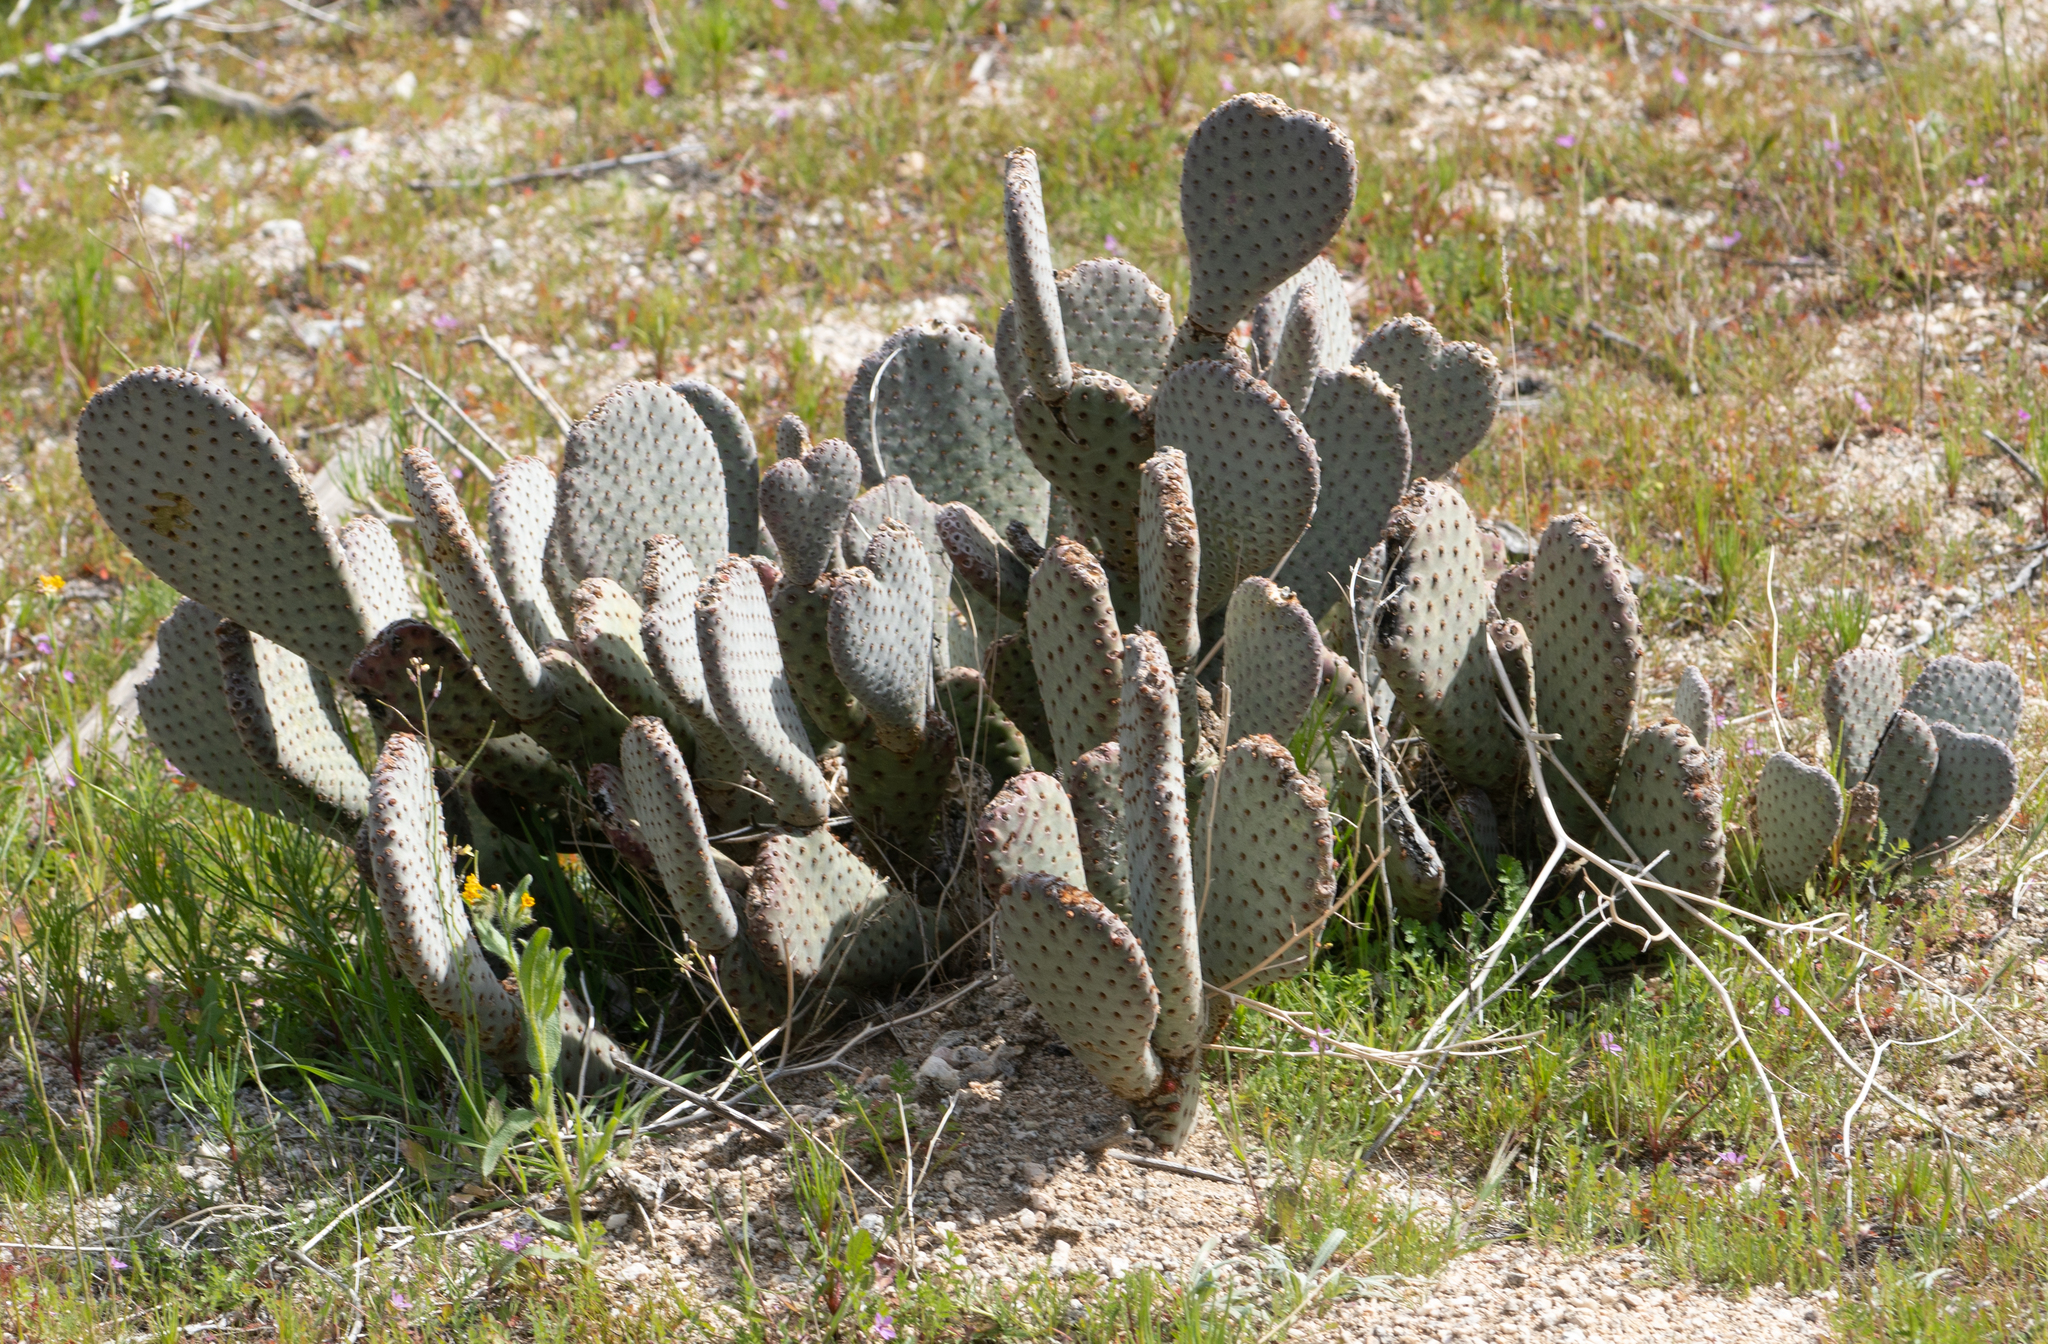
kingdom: Plantae
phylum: Tracheophyta
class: Magnoliopsida
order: Caryophyllales
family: Cactaceae
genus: Opuntia
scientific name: Opuntia basilaris
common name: Beavertail prickly-pear
